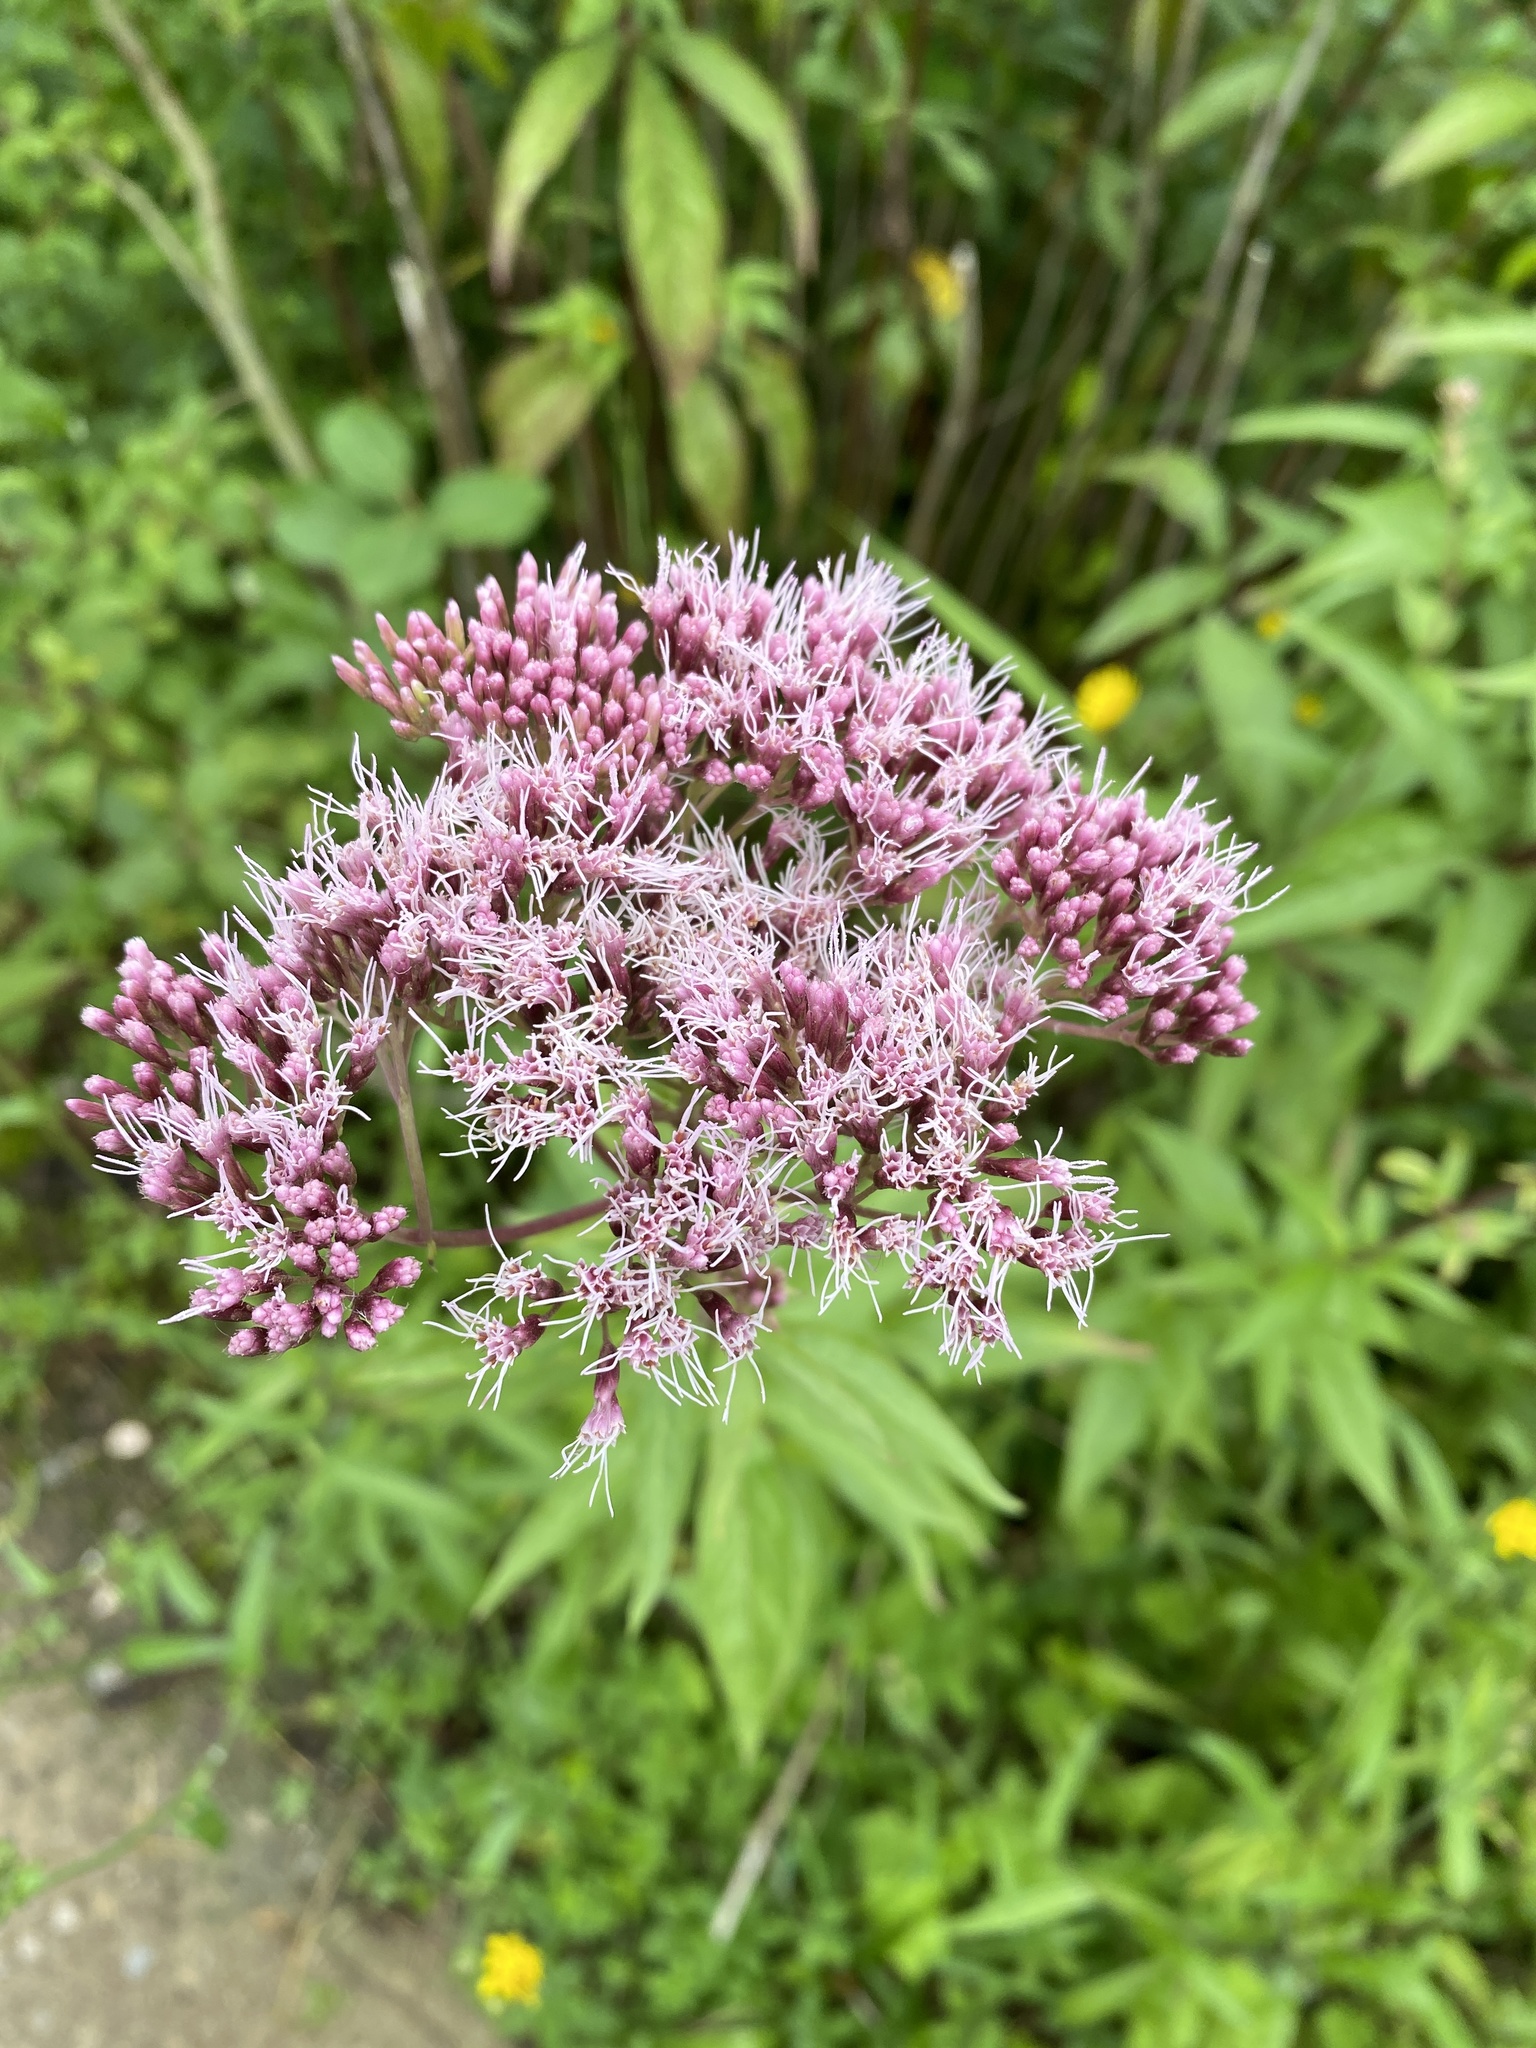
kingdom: Plantae
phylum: Tracheophyta
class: Magnoliopsida
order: Asterales
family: Asteraceae
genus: Eupatorium
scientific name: Eupatorium cannabinum
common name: Hemp-agrimony
